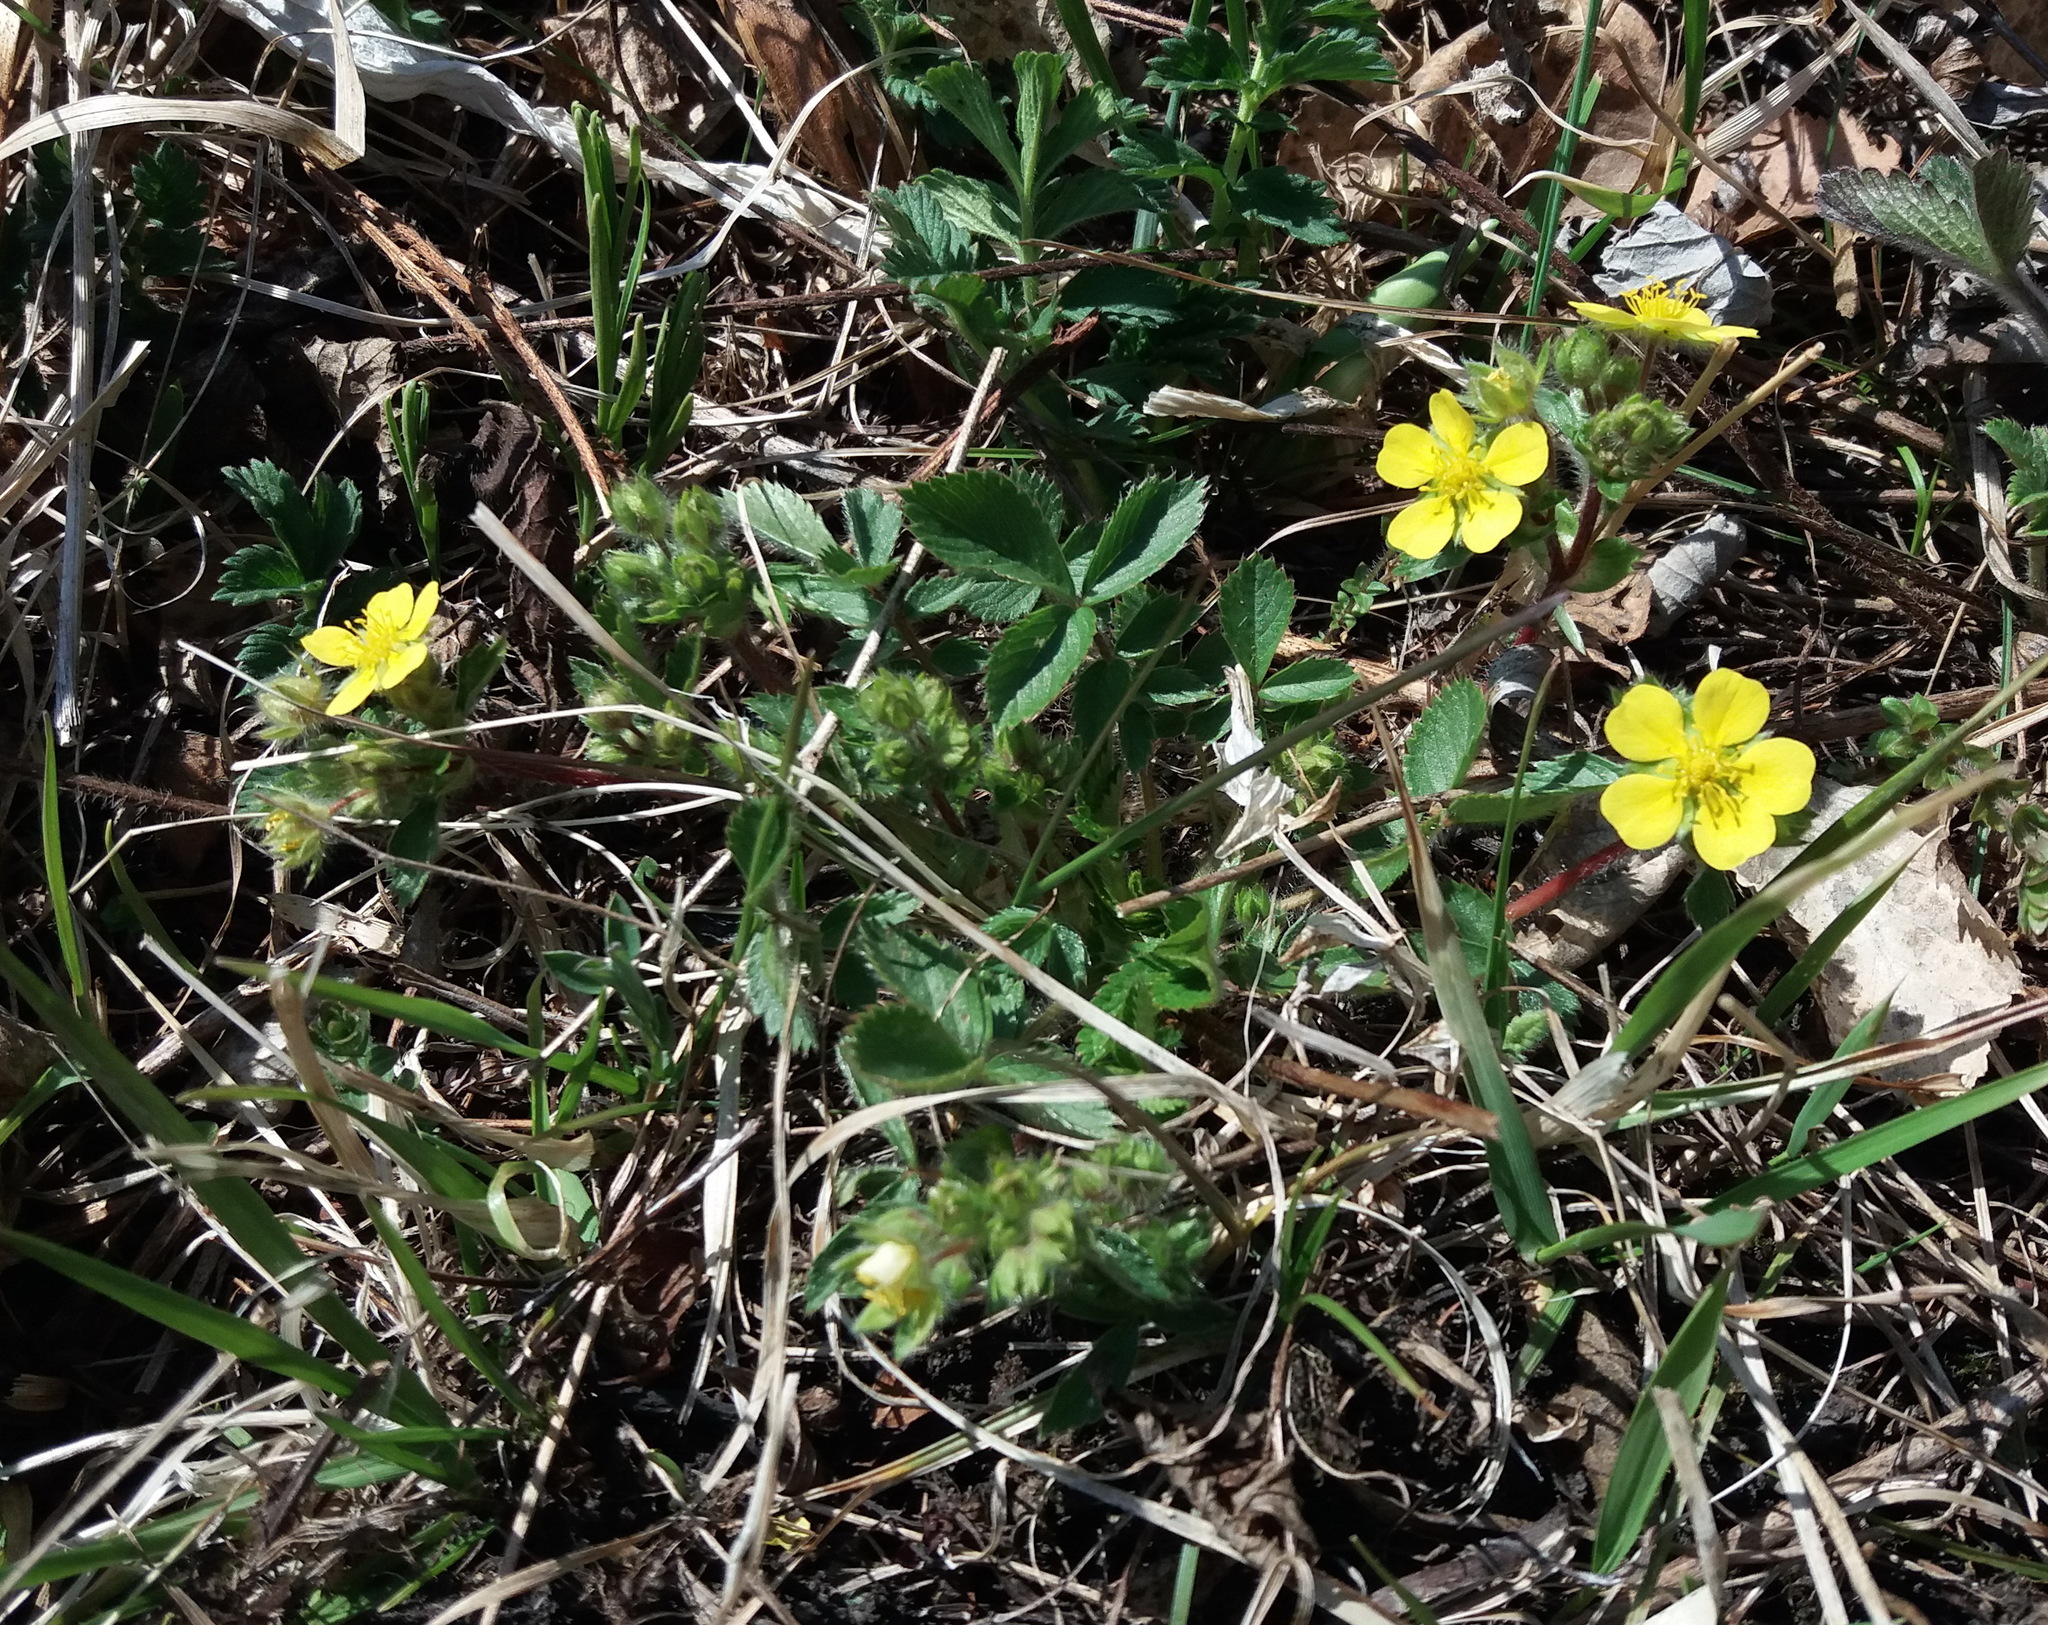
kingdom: Plantae
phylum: Tracheophyta
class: Magnoliopsida
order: Rosales
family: Rosaceae
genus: Potentilla
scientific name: Potentilla fragarioides
